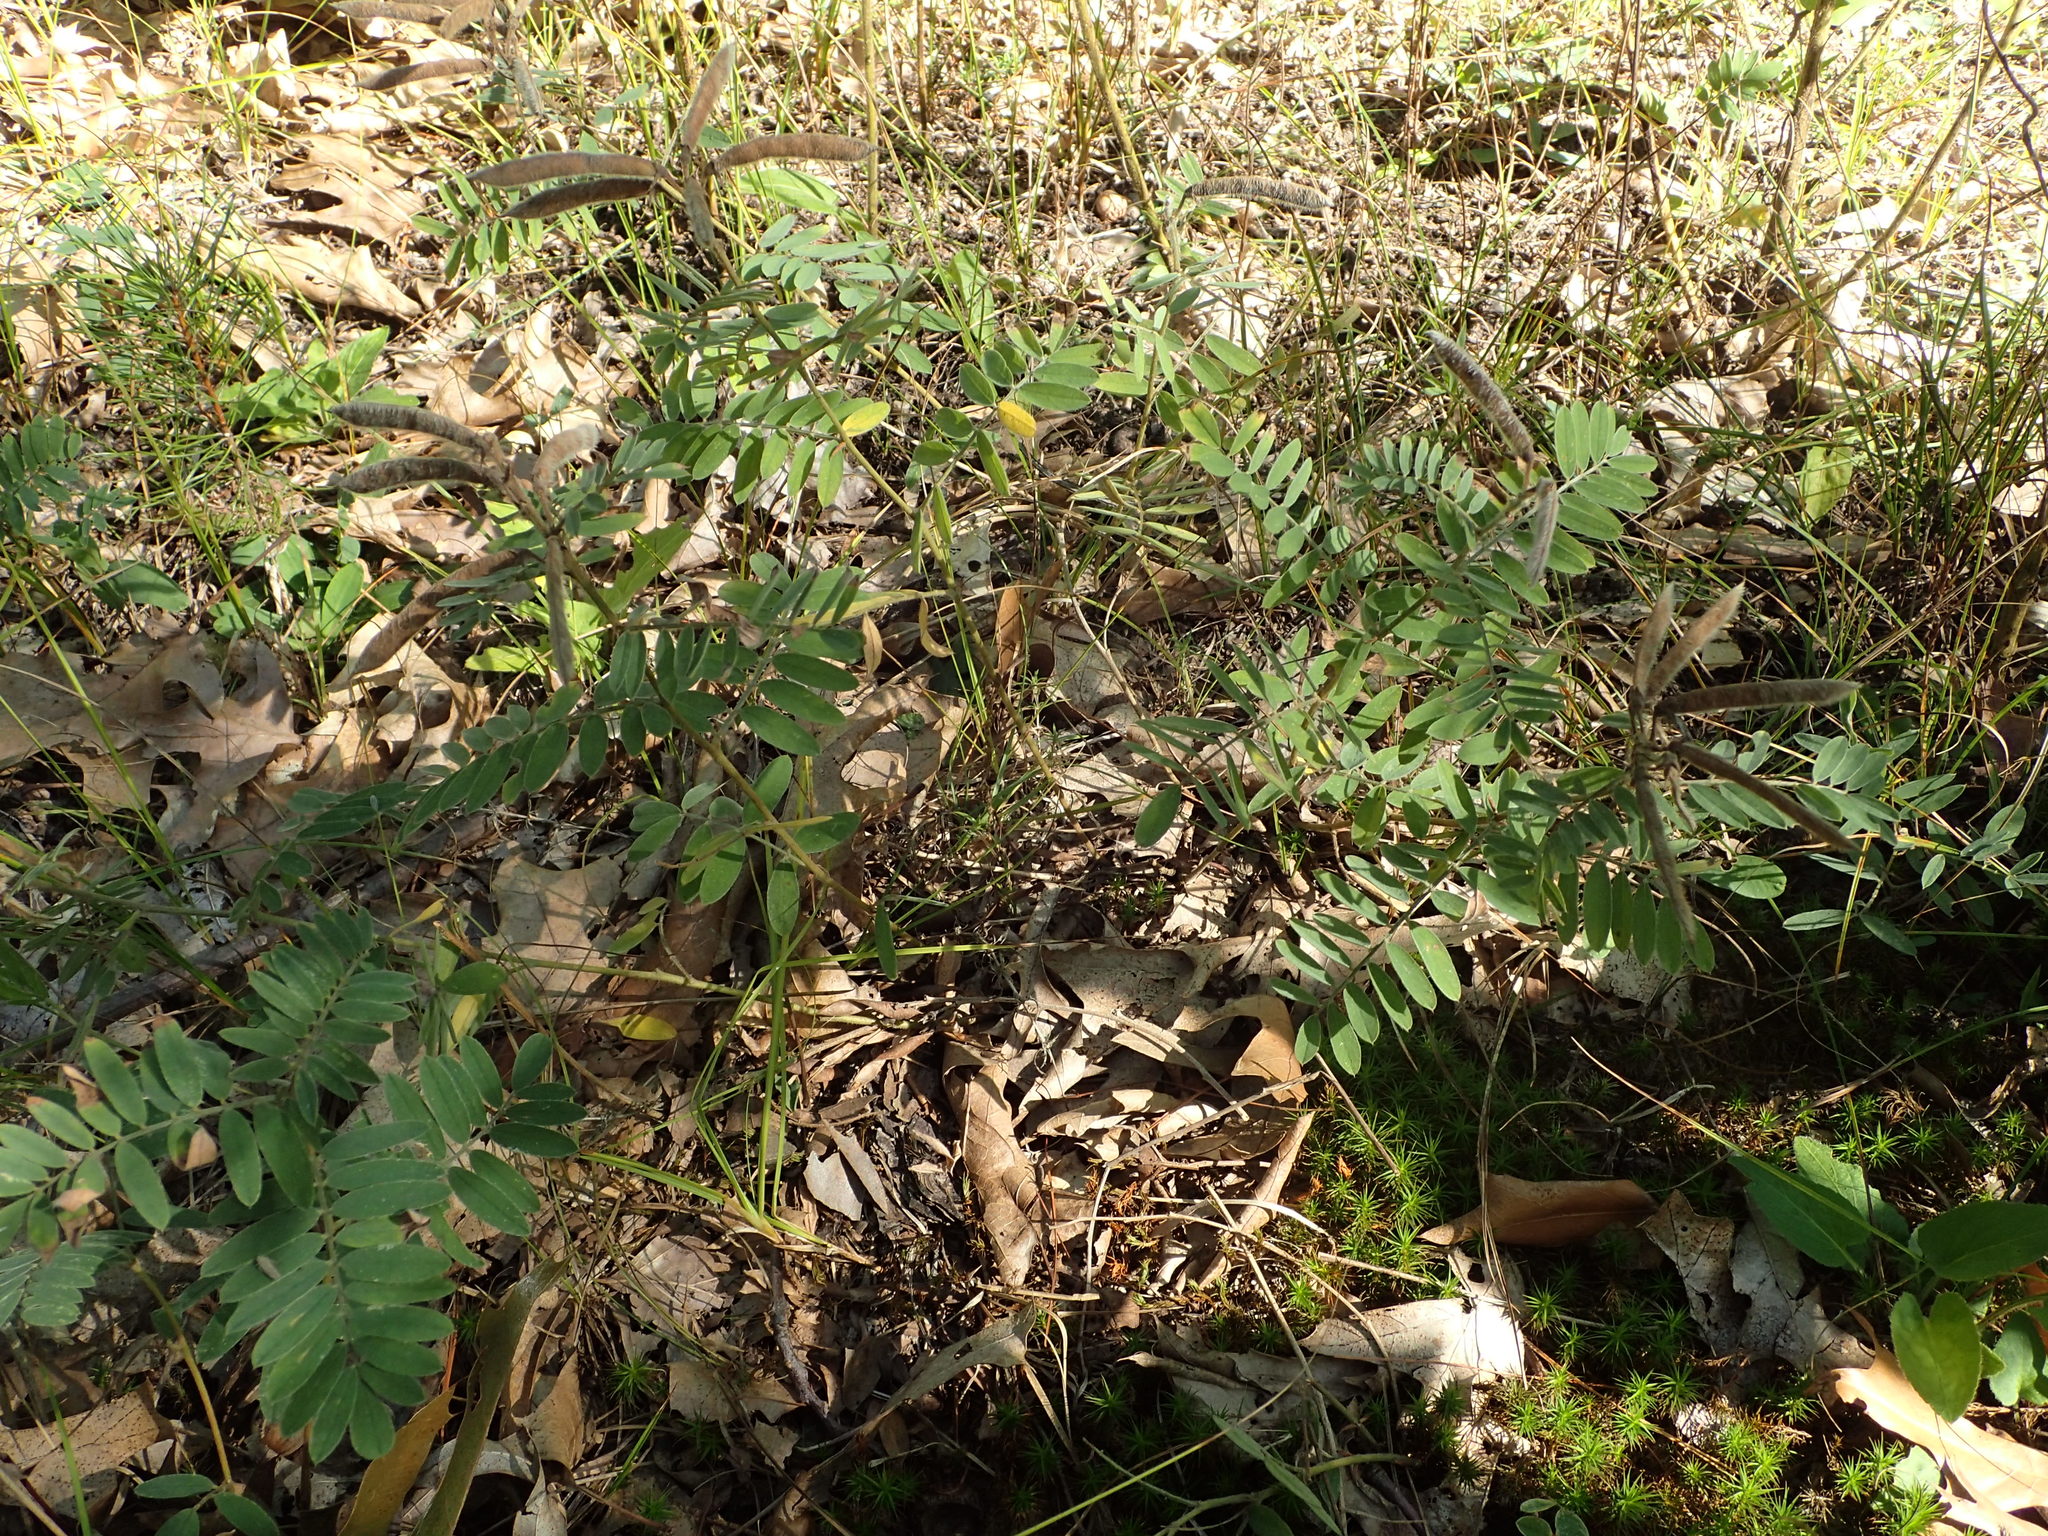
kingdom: Plantae
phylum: Tracheophyta
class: Magnoliopsida
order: Fabales
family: Fabaceae
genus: Tephrosia
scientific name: Tephrosia virginiana
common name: Rabbit-pea
